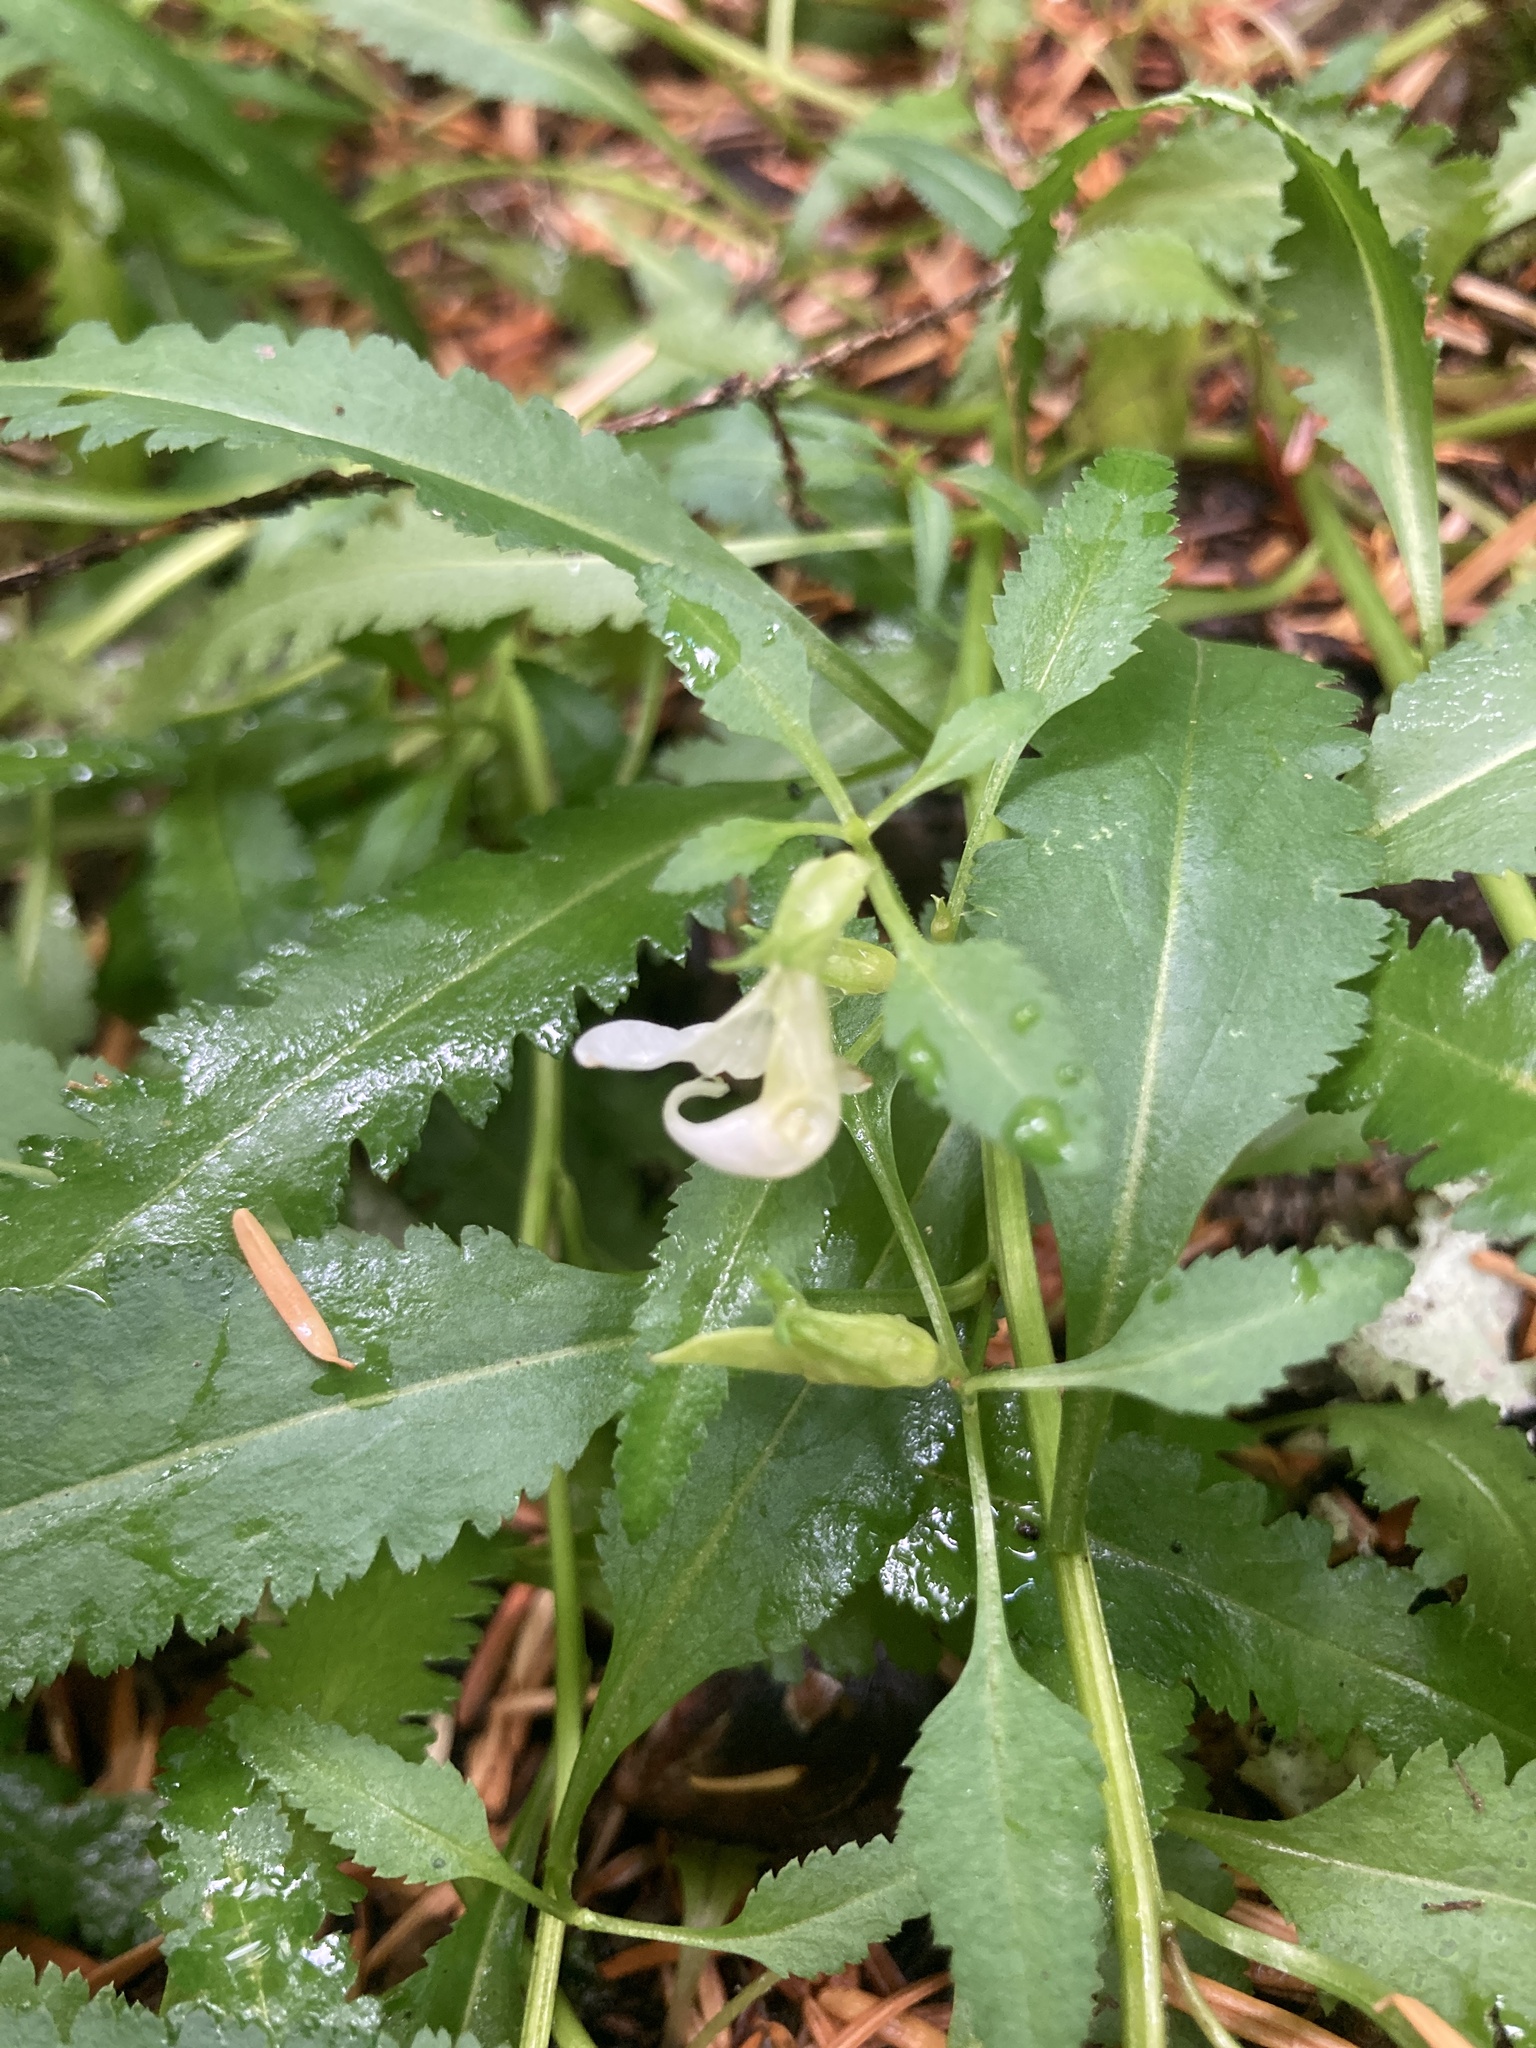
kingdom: Plantae
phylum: Tracheophyta
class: Magnoliopsida
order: Lamiales
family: Orobanchaceae
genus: Pedicularis
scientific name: Pedicularis racemosa
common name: Leafy lousewort
